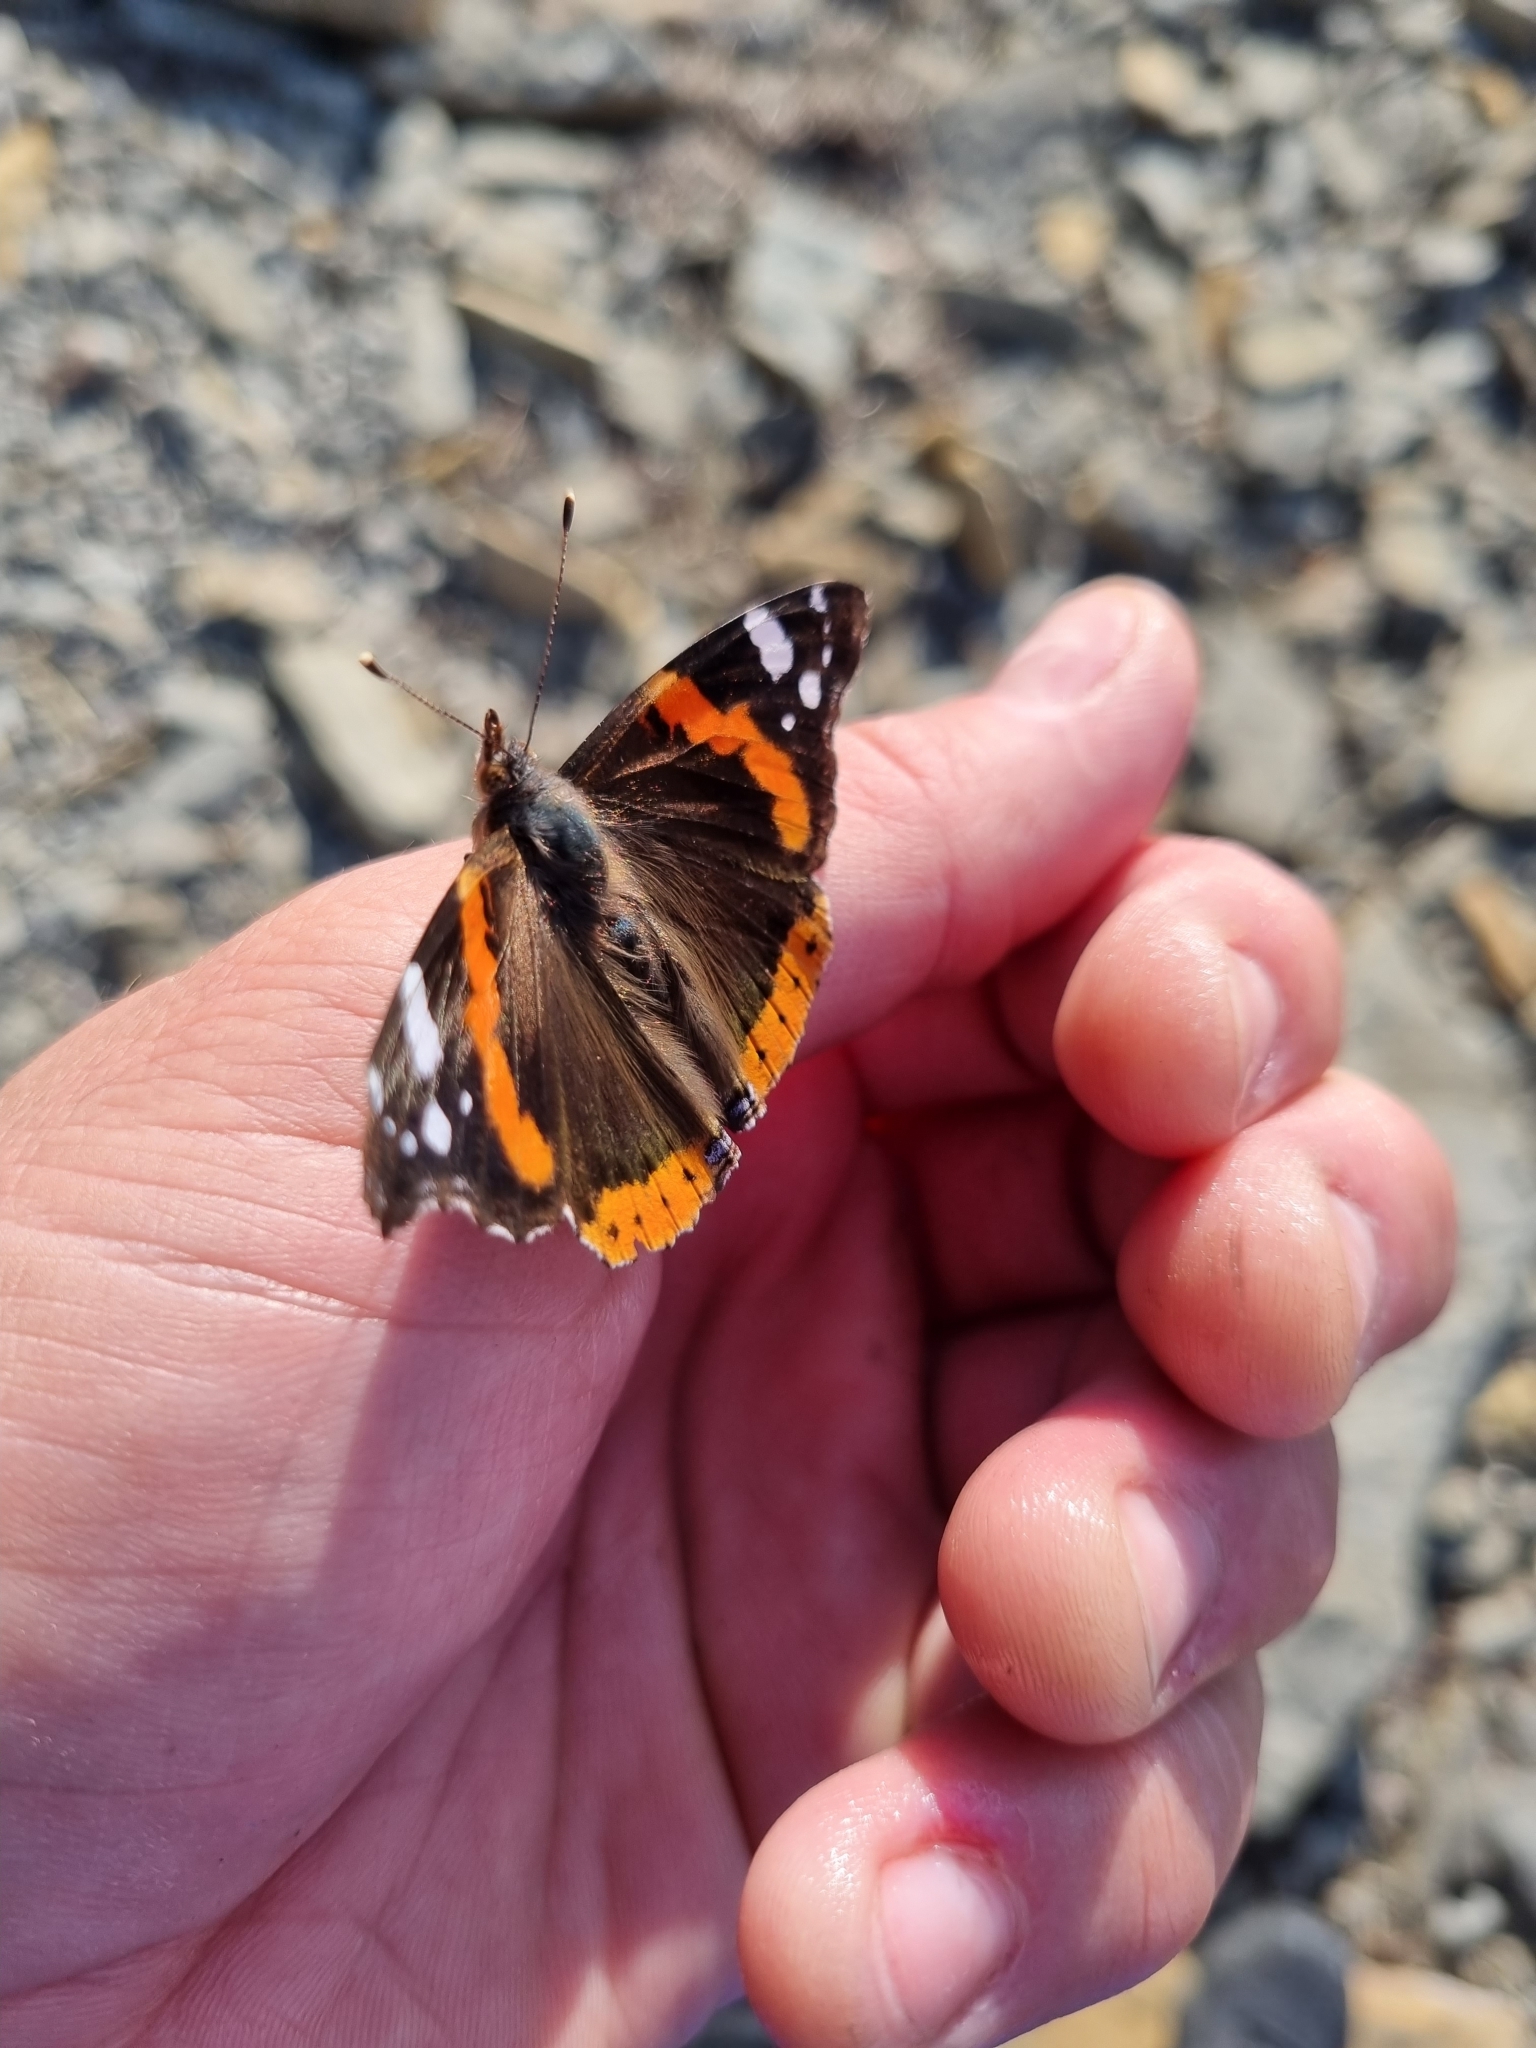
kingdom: Animalia
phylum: Arthropoda
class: Insecta
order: Lepidoptera
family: Nymphalidae
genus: Vanessa
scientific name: Vanessa atalanta
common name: Red admiral
